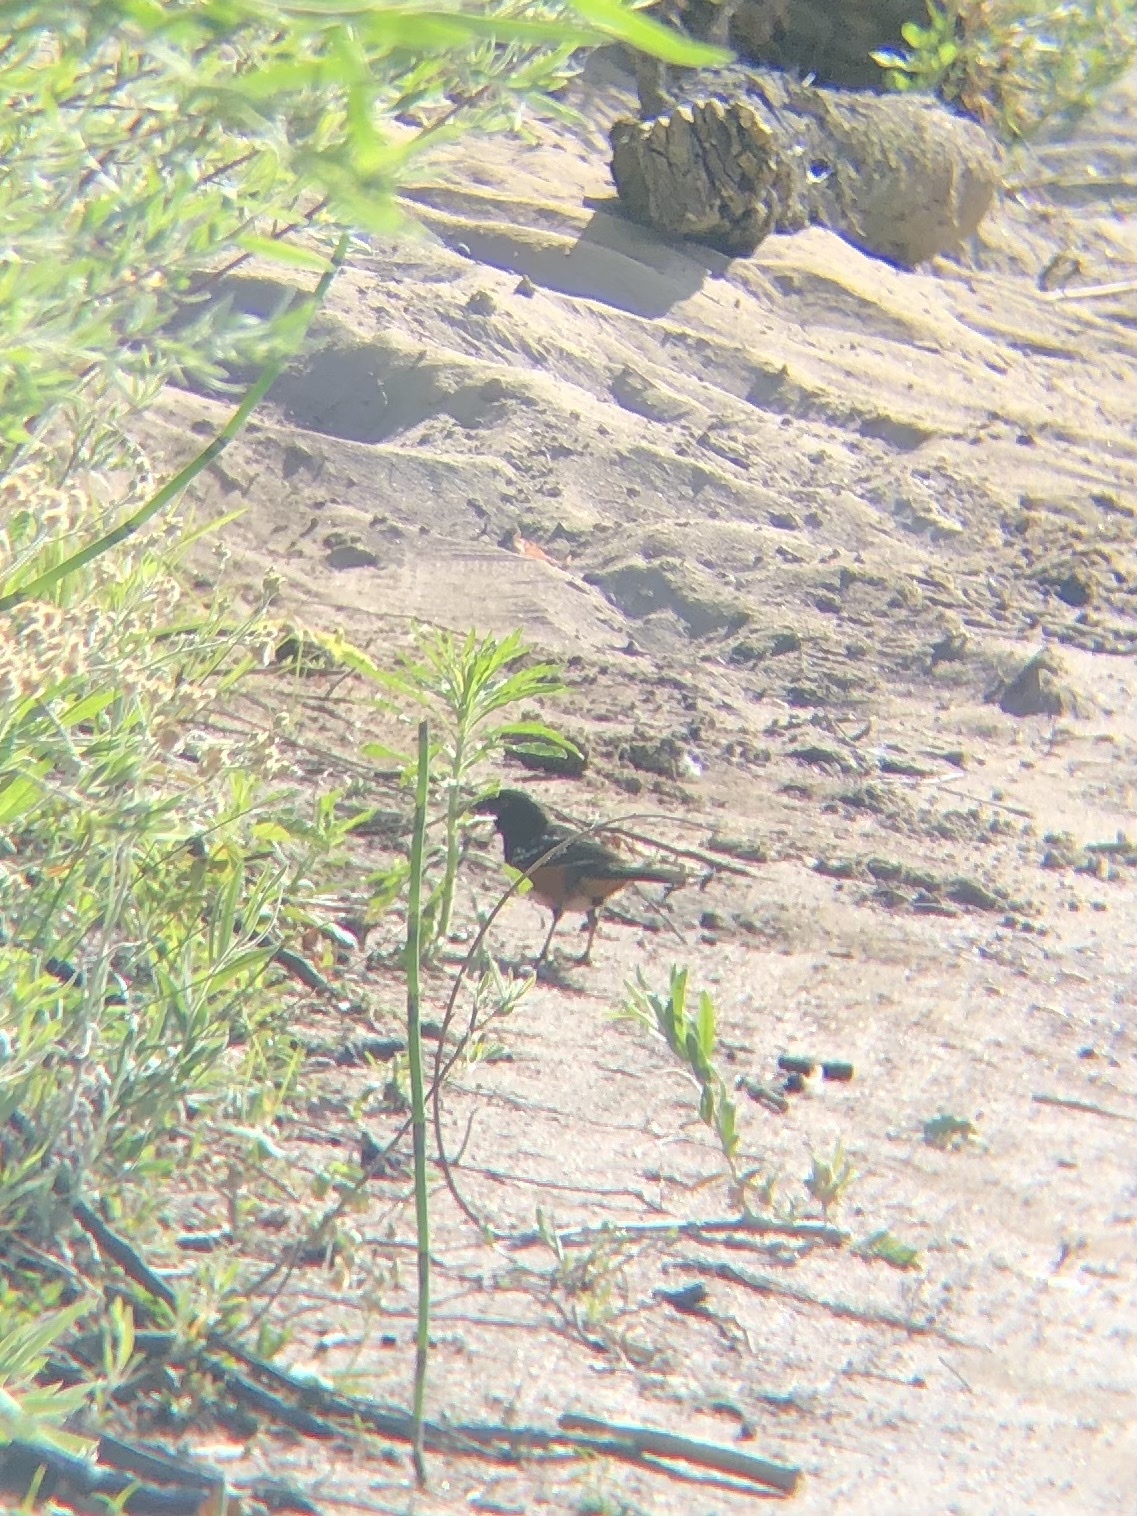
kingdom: Animalia
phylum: Chordata
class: Aves
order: Passeriformes
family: Passerellidae
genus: Pipilo
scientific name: Pipilo maculatus
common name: Spotted towhee
